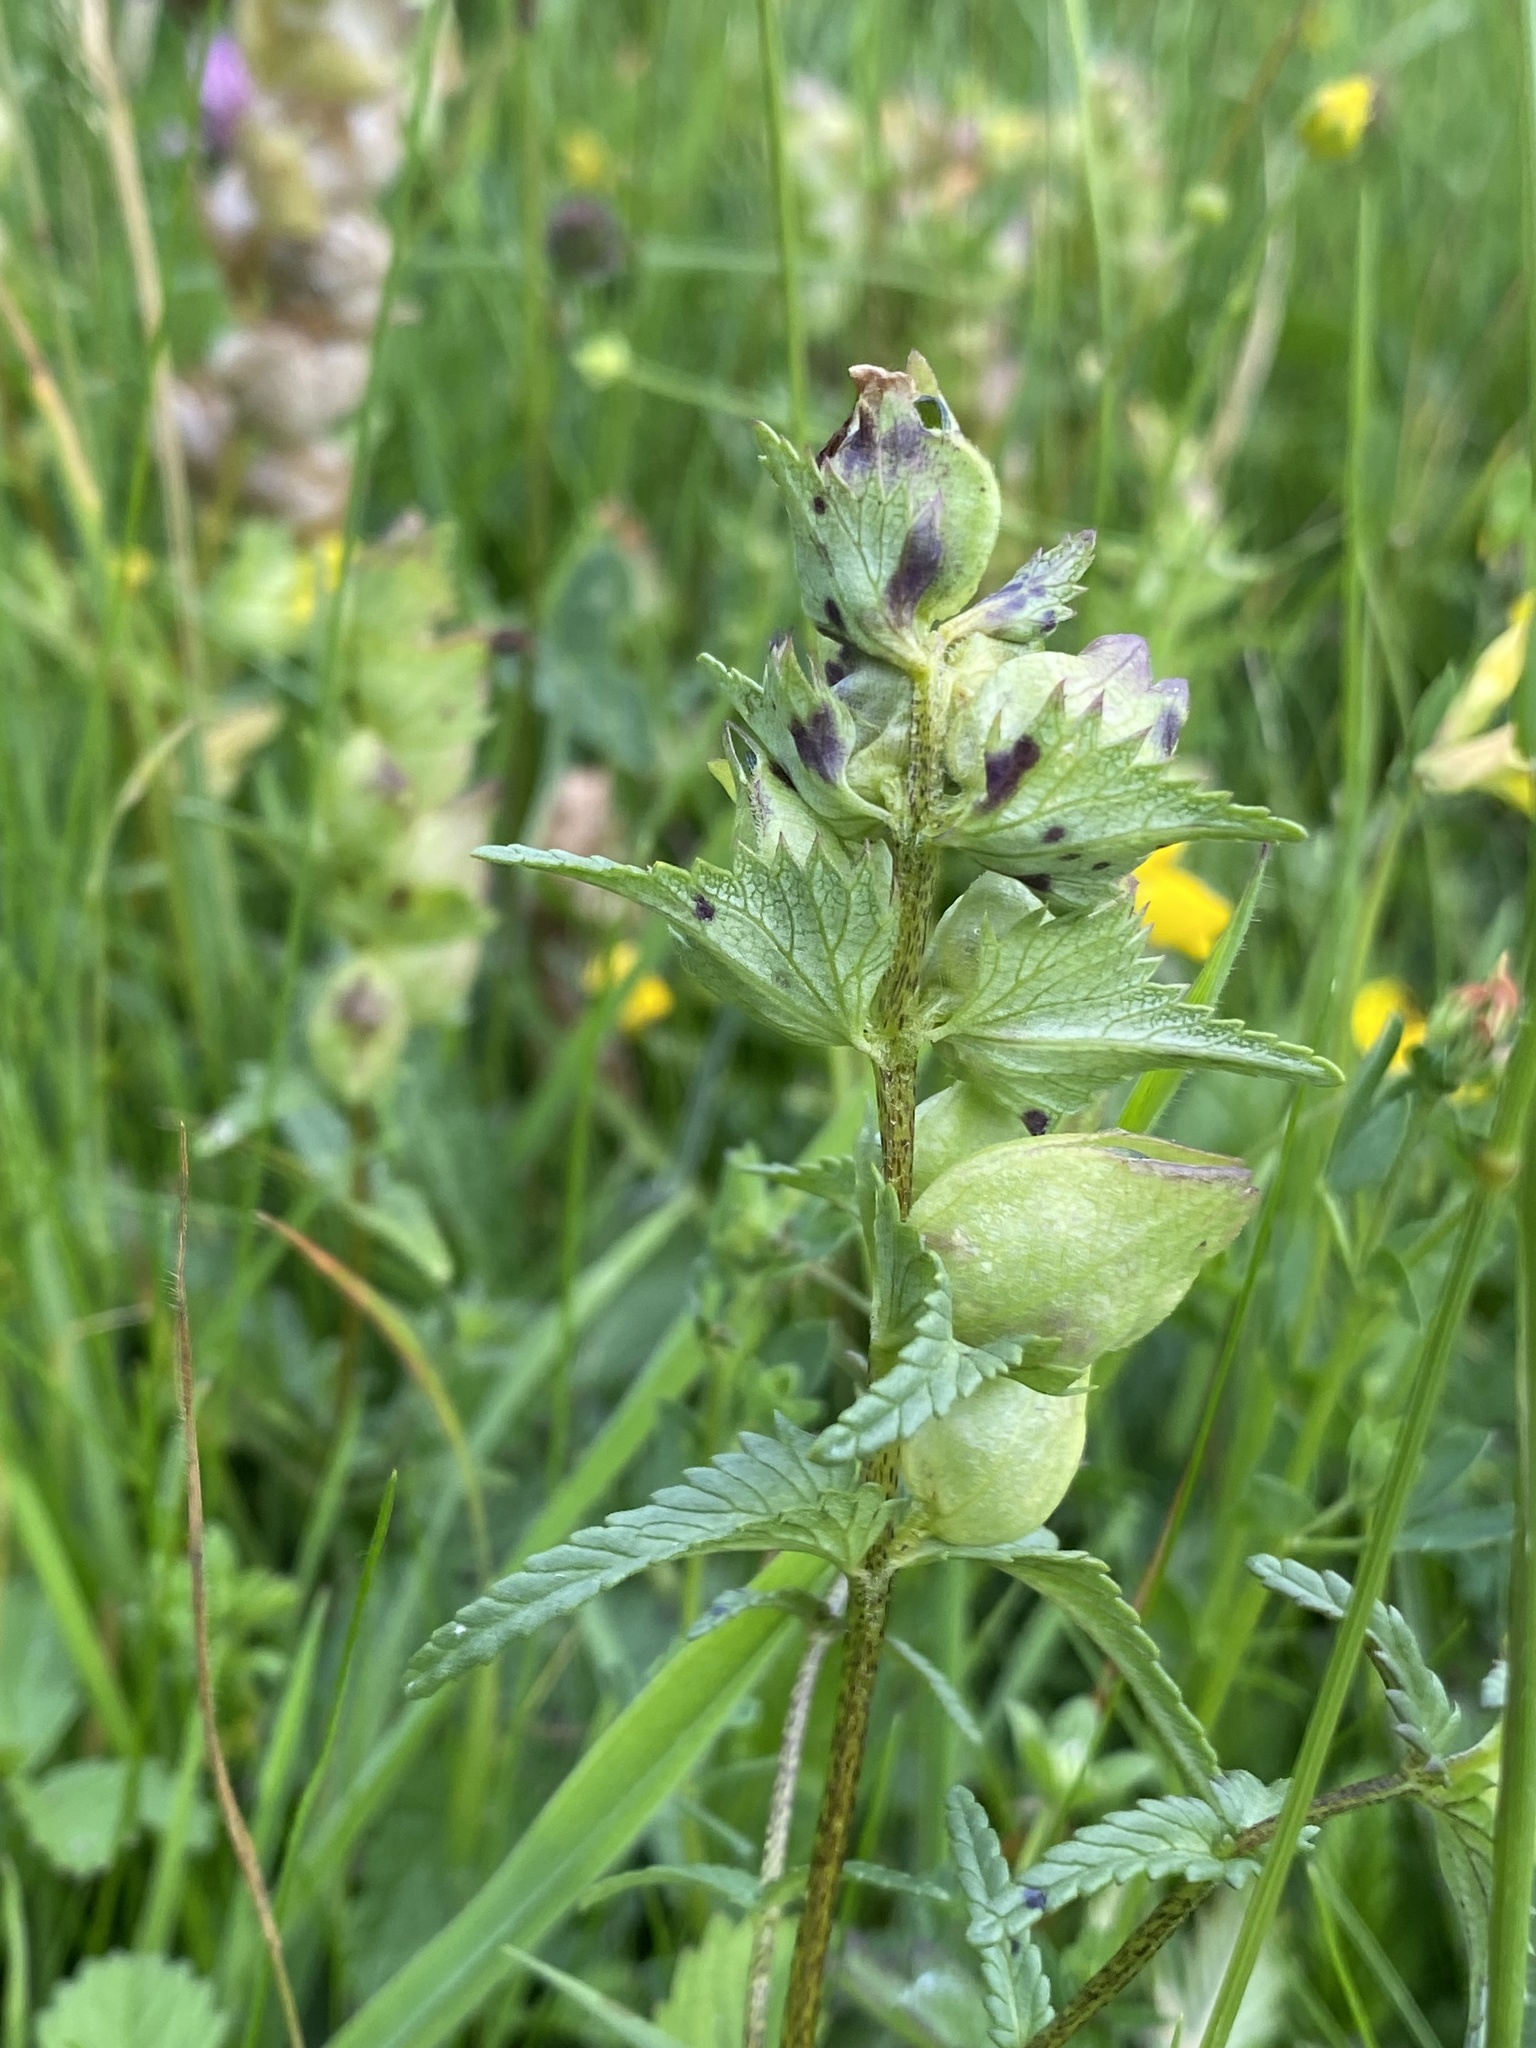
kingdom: Plantae
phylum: Tracheophyta
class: Magnoliopsida
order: Lamiales
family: Orobanchaceae
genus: Rhinanthus
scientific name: Rhinanthus minor
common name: Yellow-rattle
